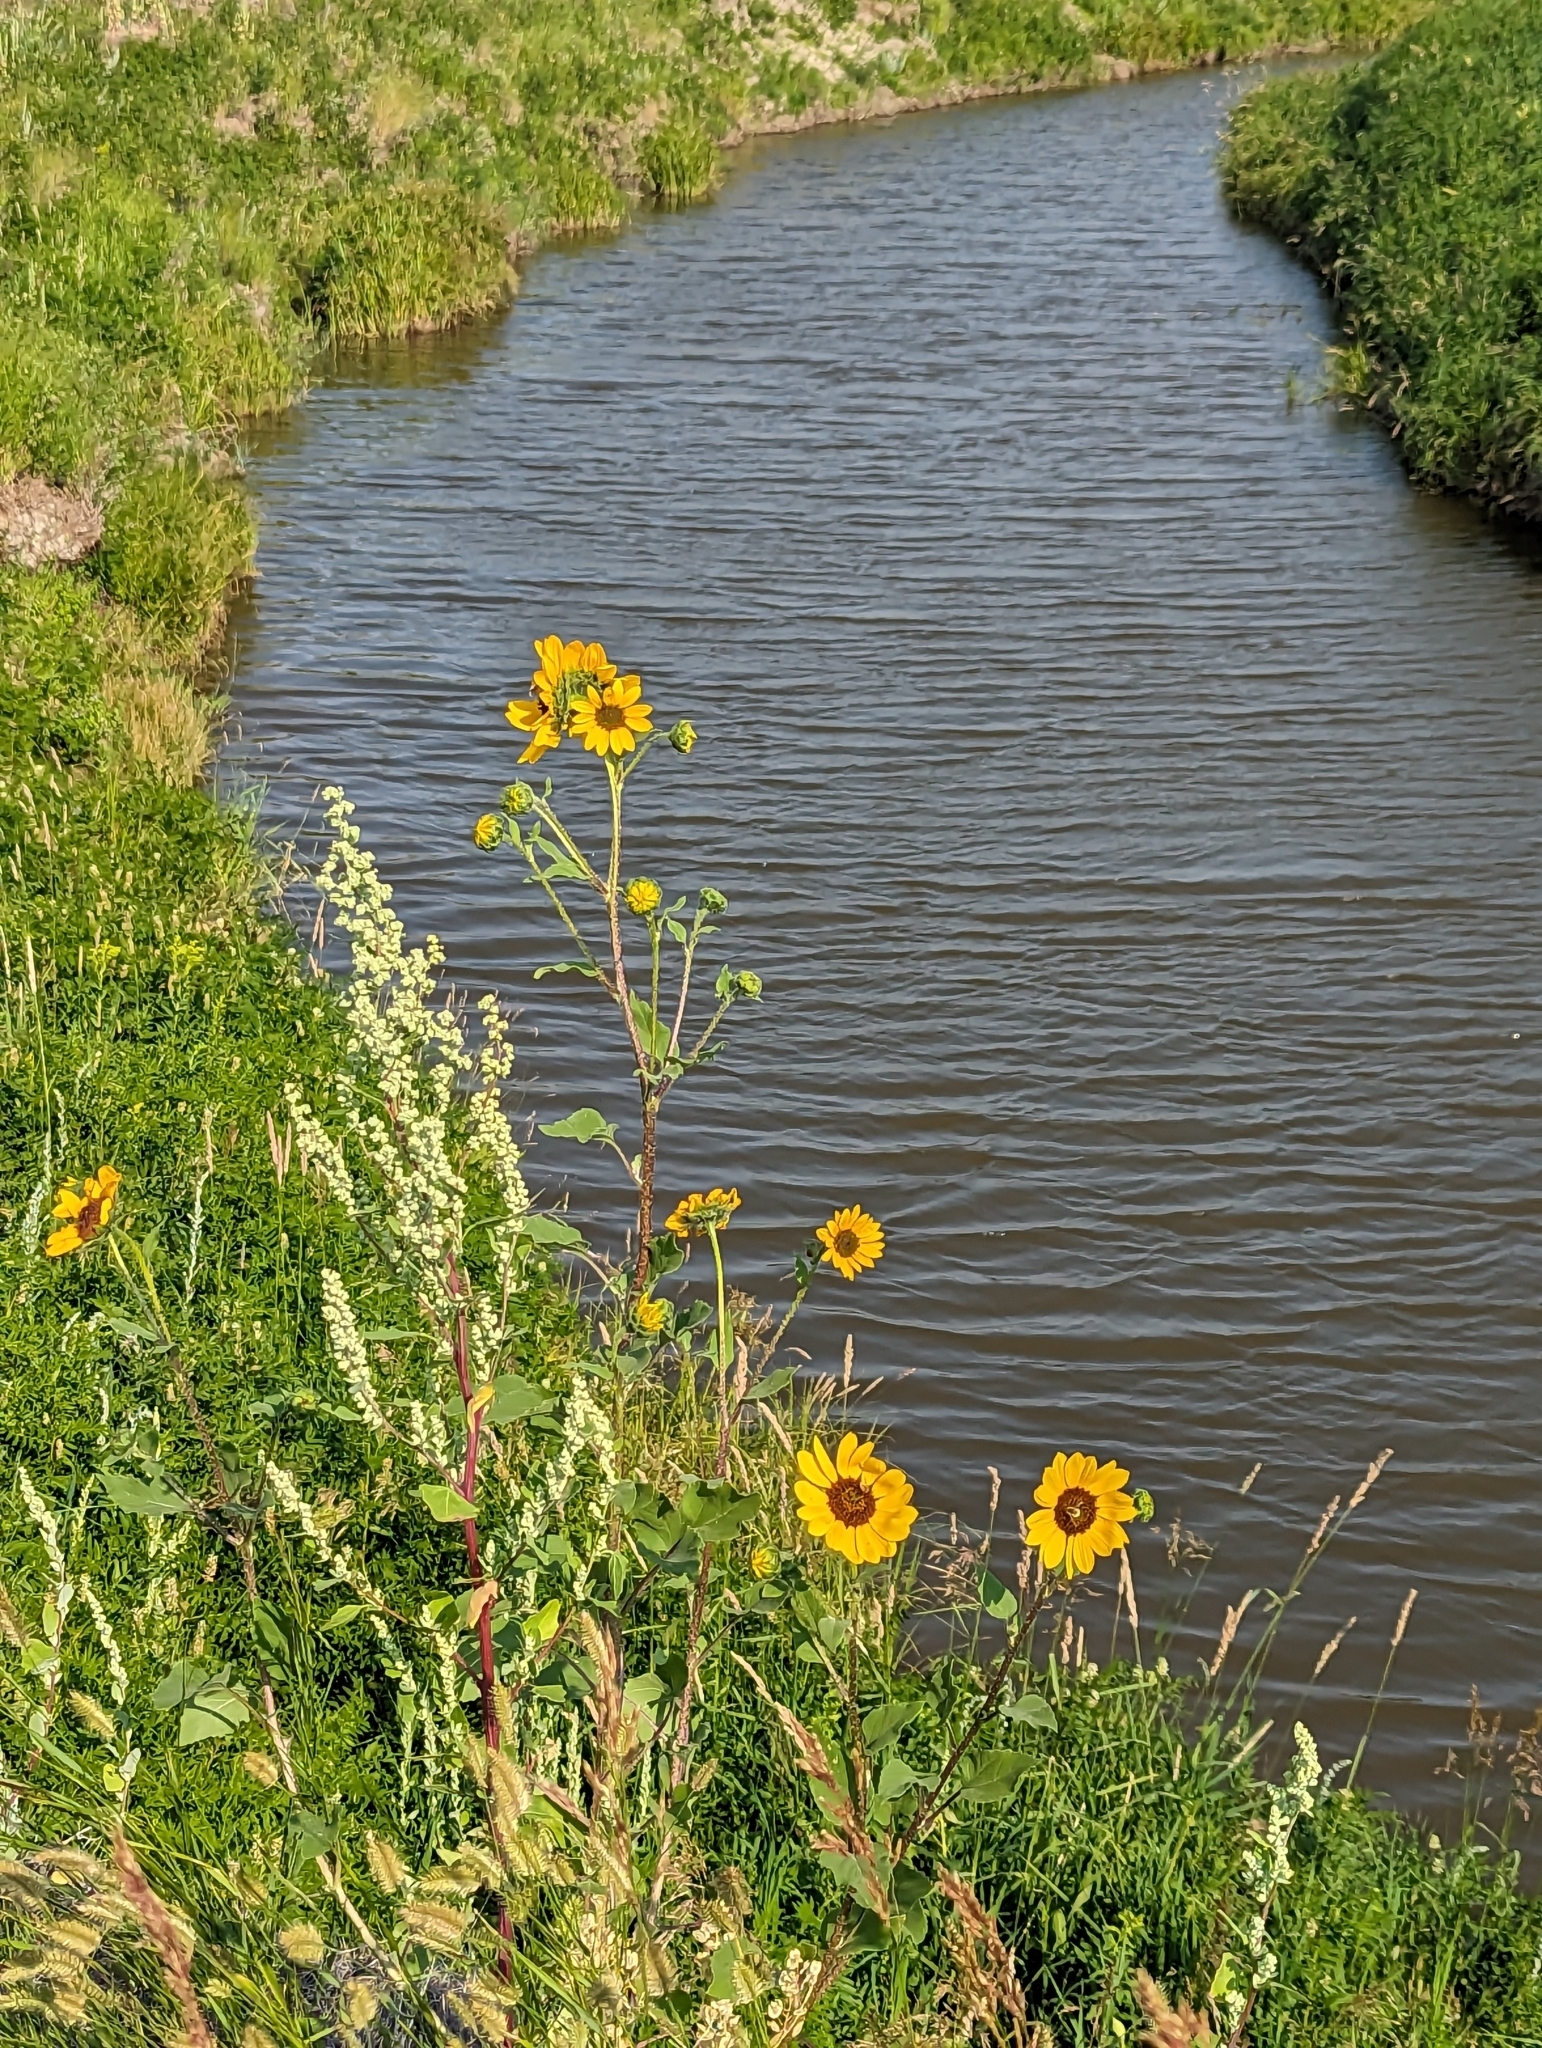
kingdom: Plantae
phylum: Tracheophyta
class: Magnoliopsida
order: Asterales
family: Asteraceae
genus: Helianthus
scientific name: Helianthus annuus
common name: Sunflower
